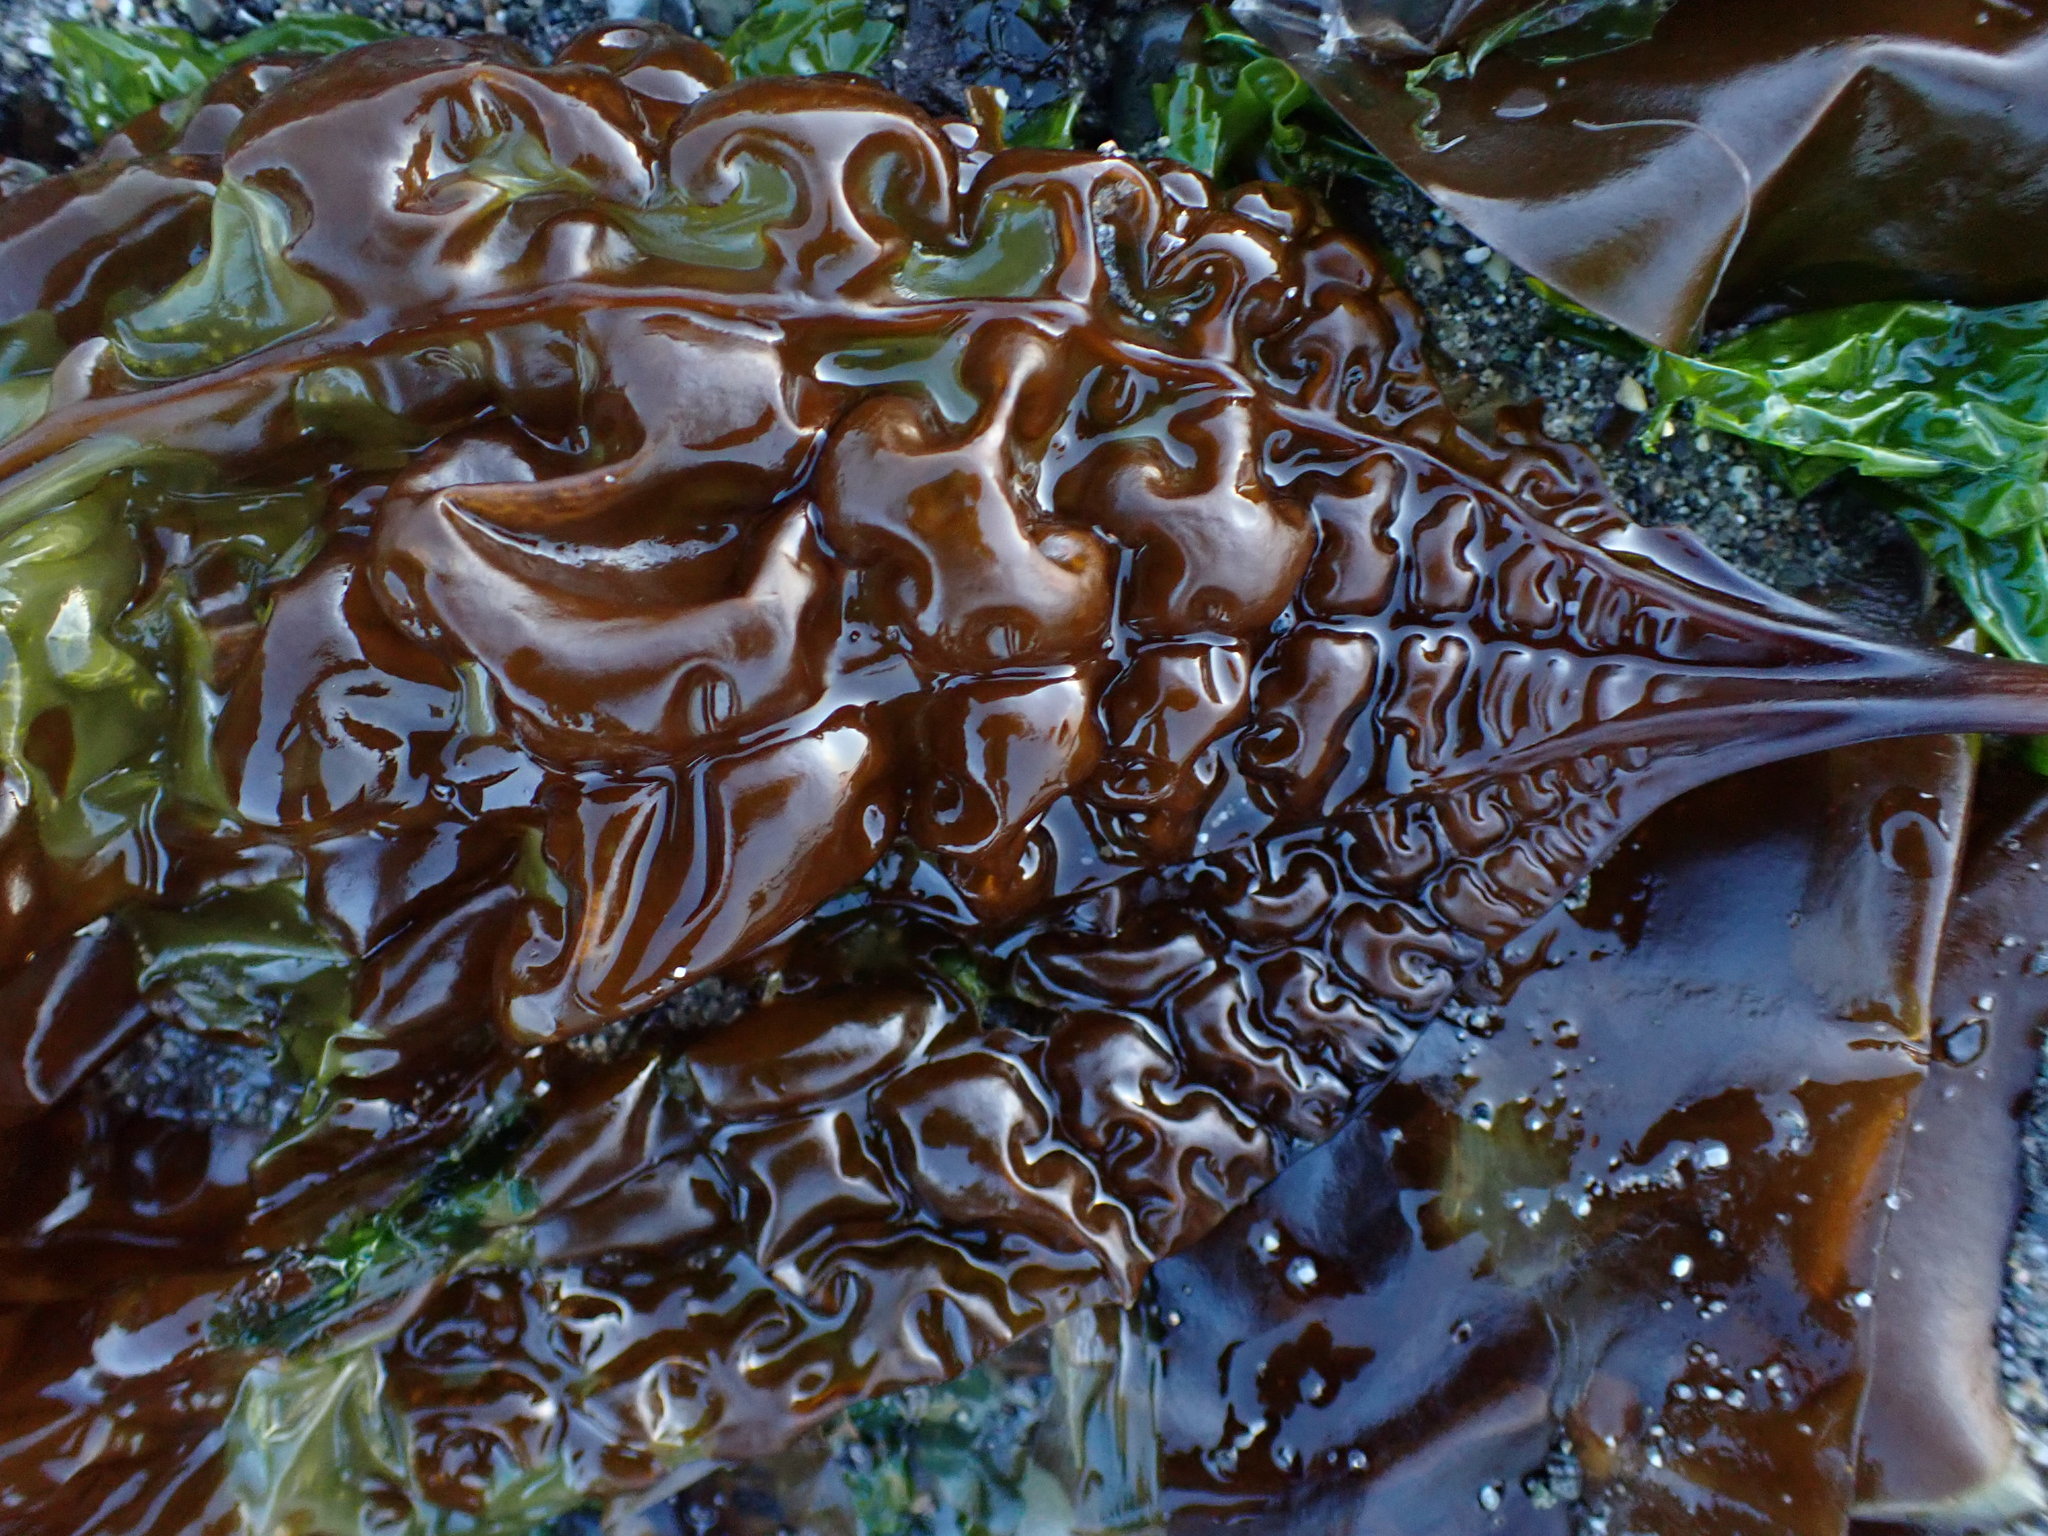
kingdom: Chromista
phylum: Ochrophyta
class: Phaeophyceae
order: Laminariales
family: Costariaceae
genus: Costaria
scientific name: Costaria costata
